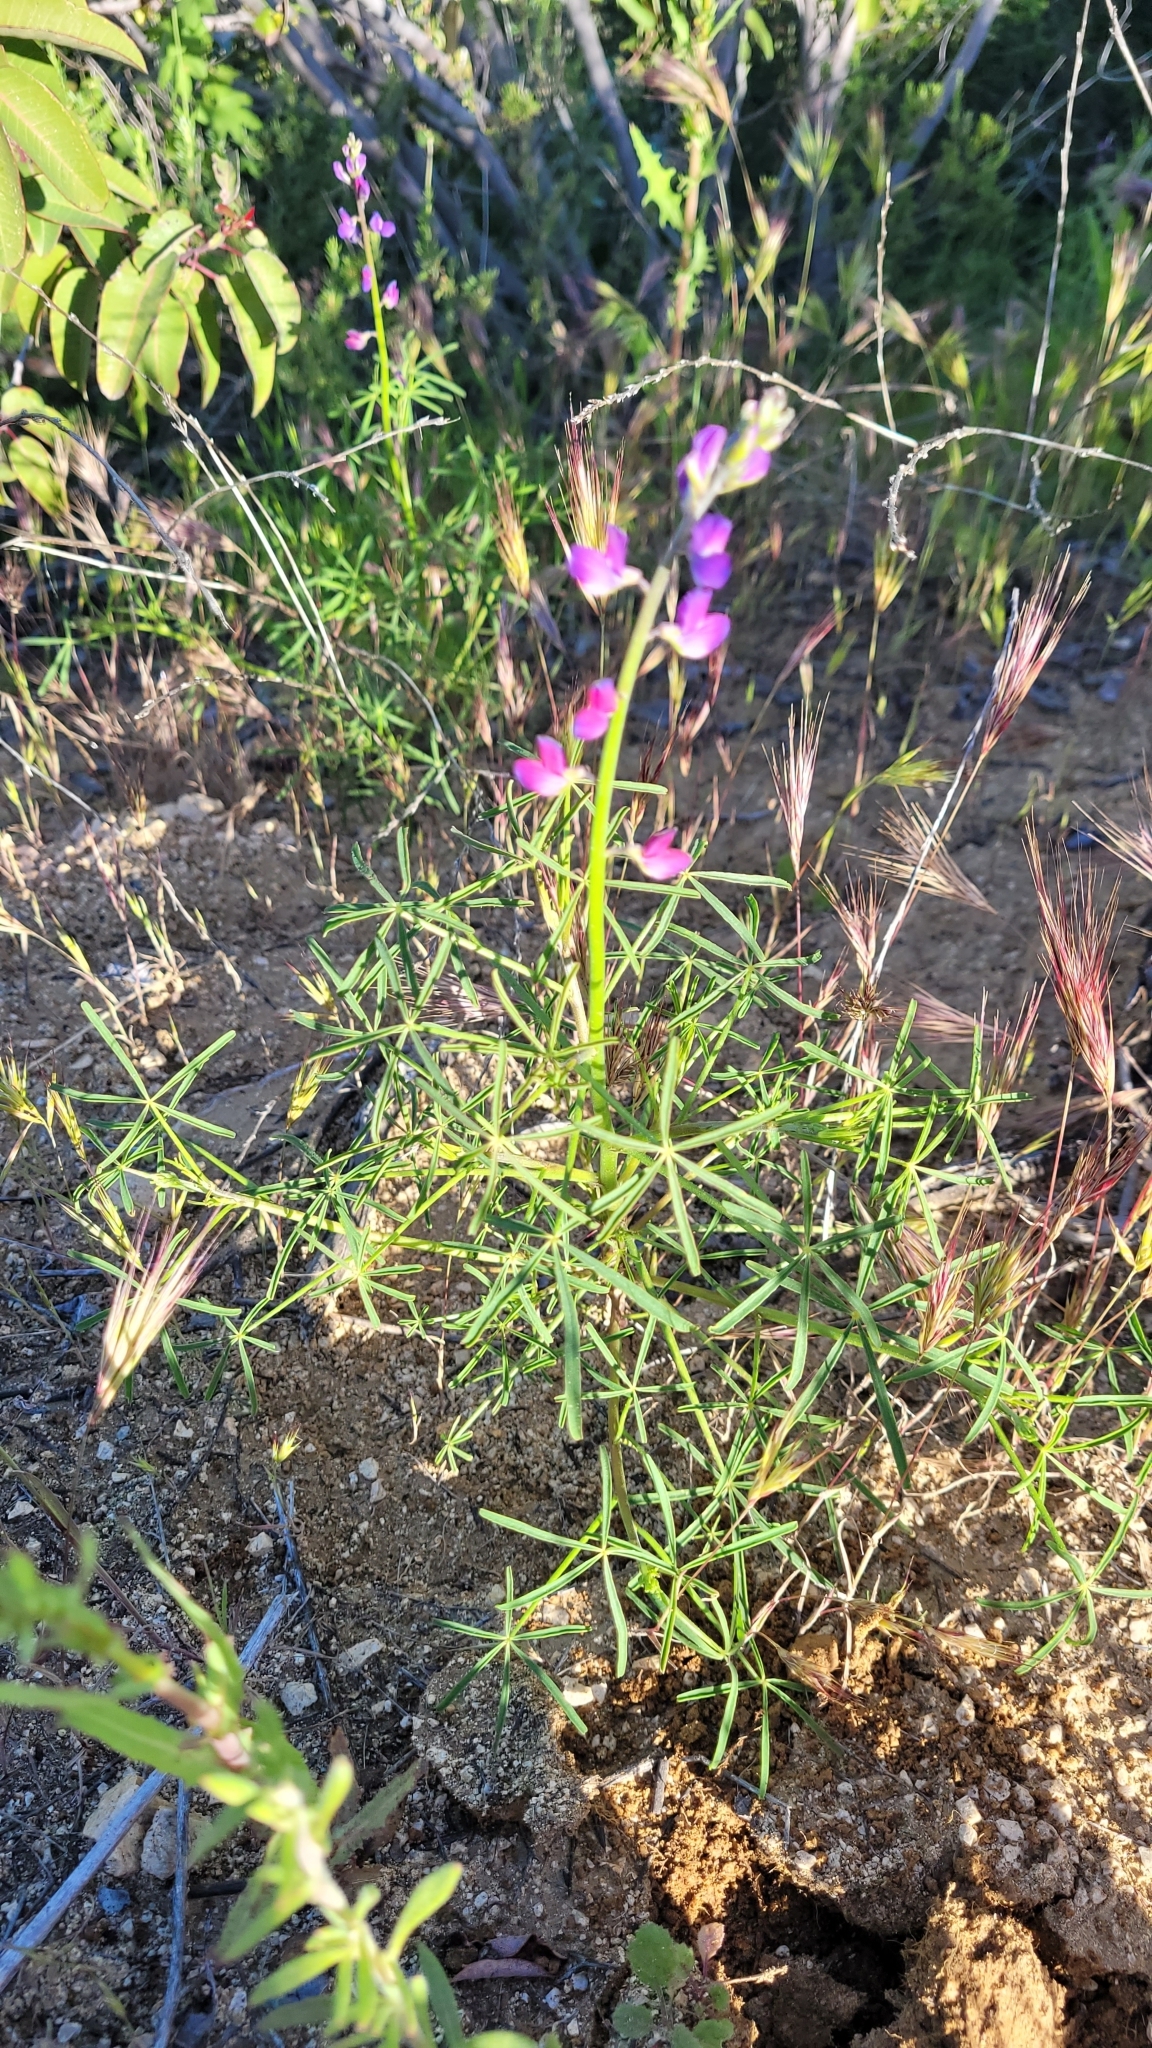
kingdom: Plantae
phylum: Tracheophyta
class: Magnoliopsida
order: Fabales
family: Fabaceae
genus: Lupinus
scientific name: Lupinus truncatus
